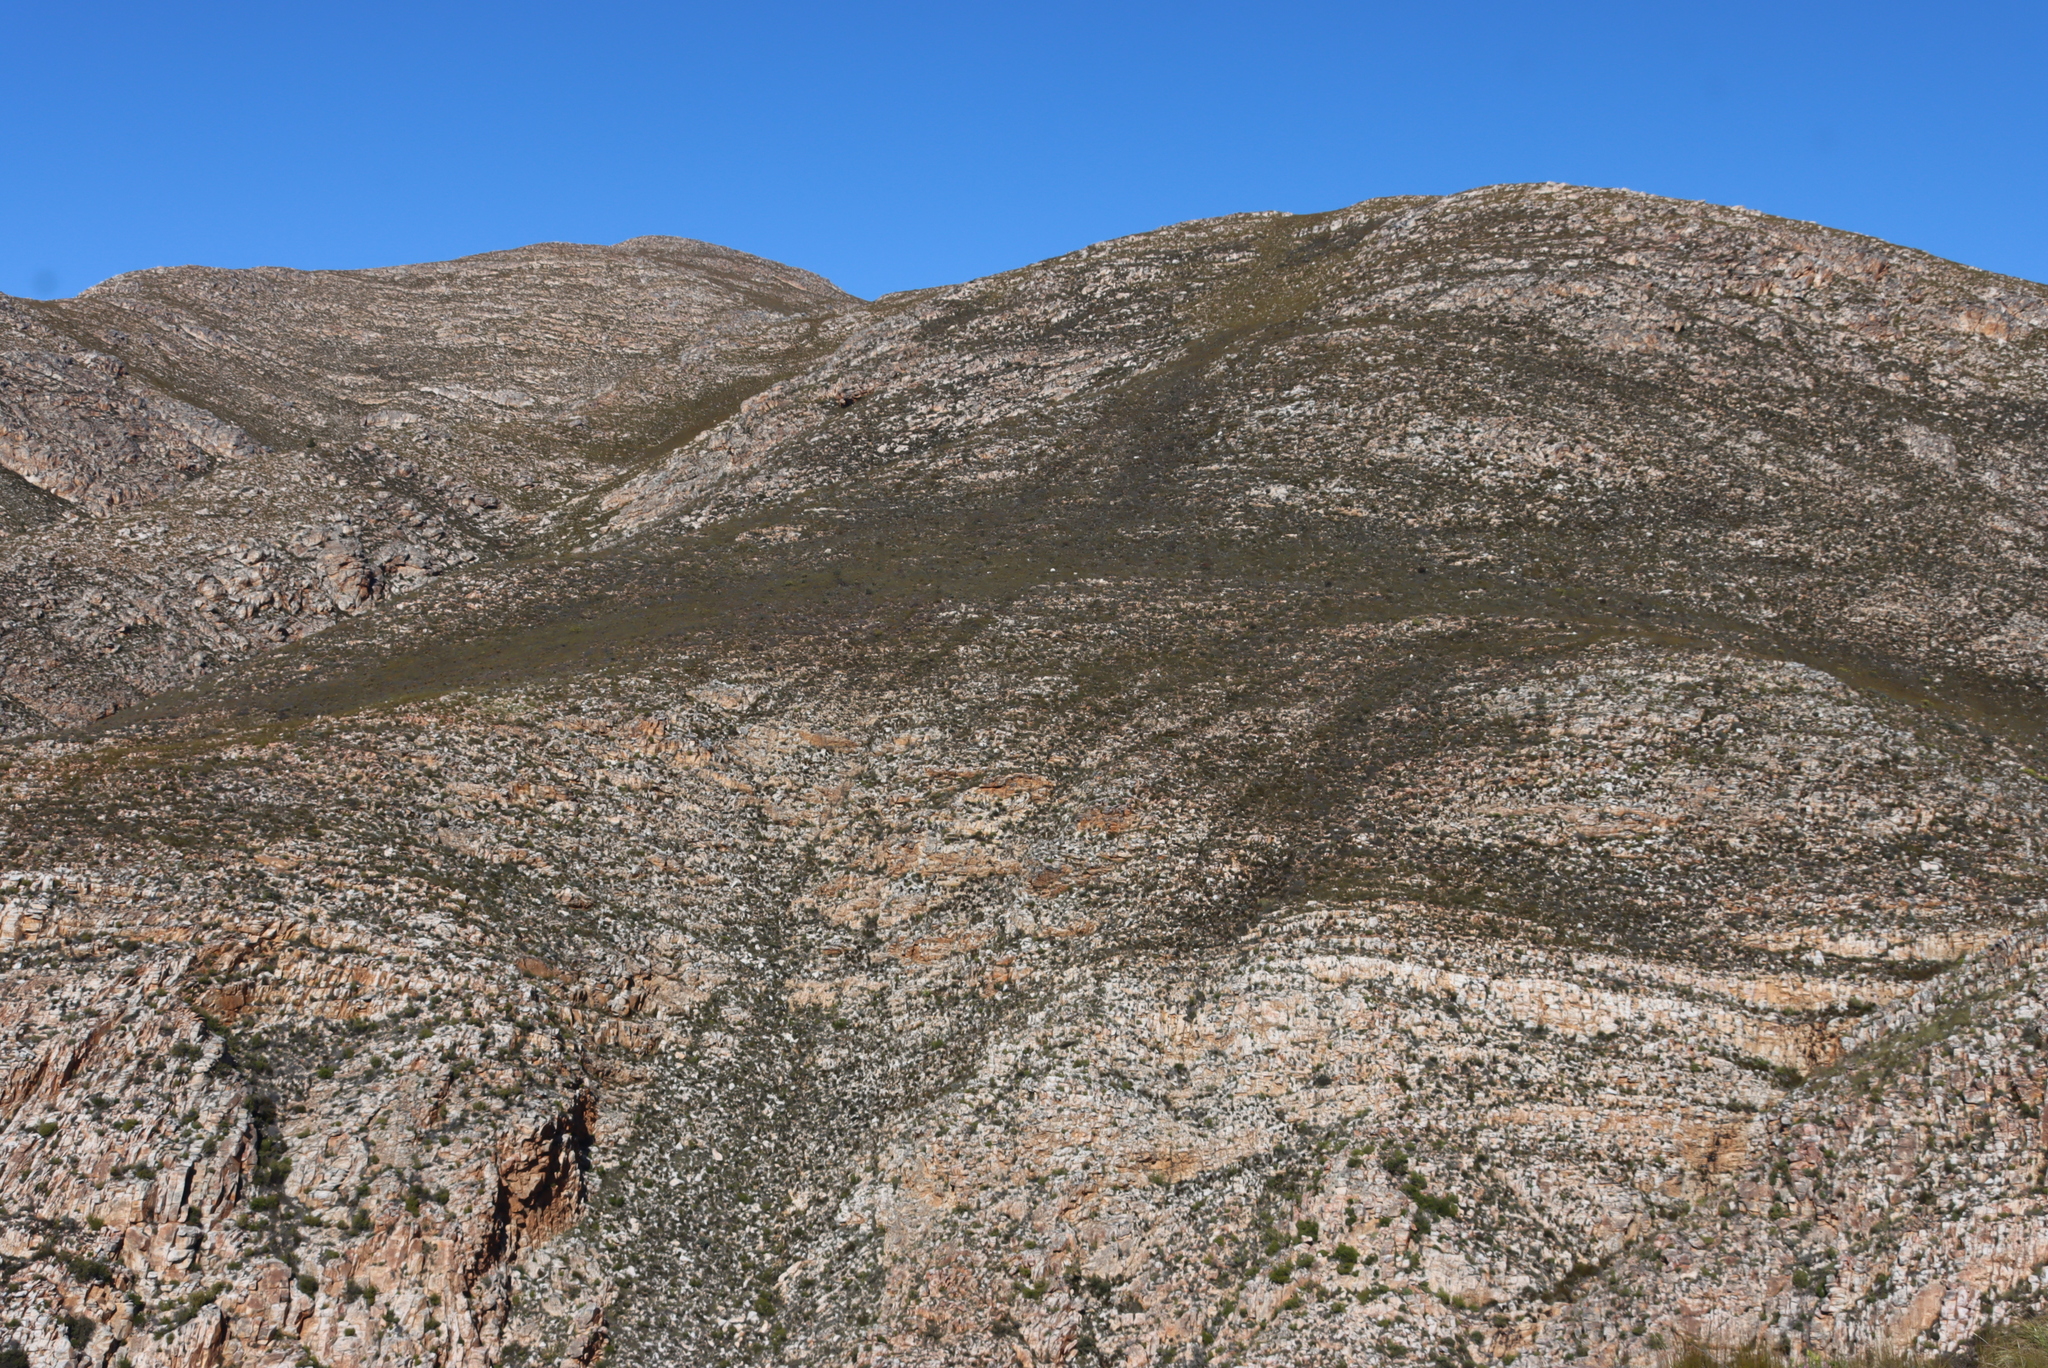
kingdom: Plantae
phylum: Tracheophyta
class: Magnoliopsida
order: Proteales
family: Proteaceae
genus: Protea
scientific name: Protea lorifolia
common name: Strap-leaved protea
